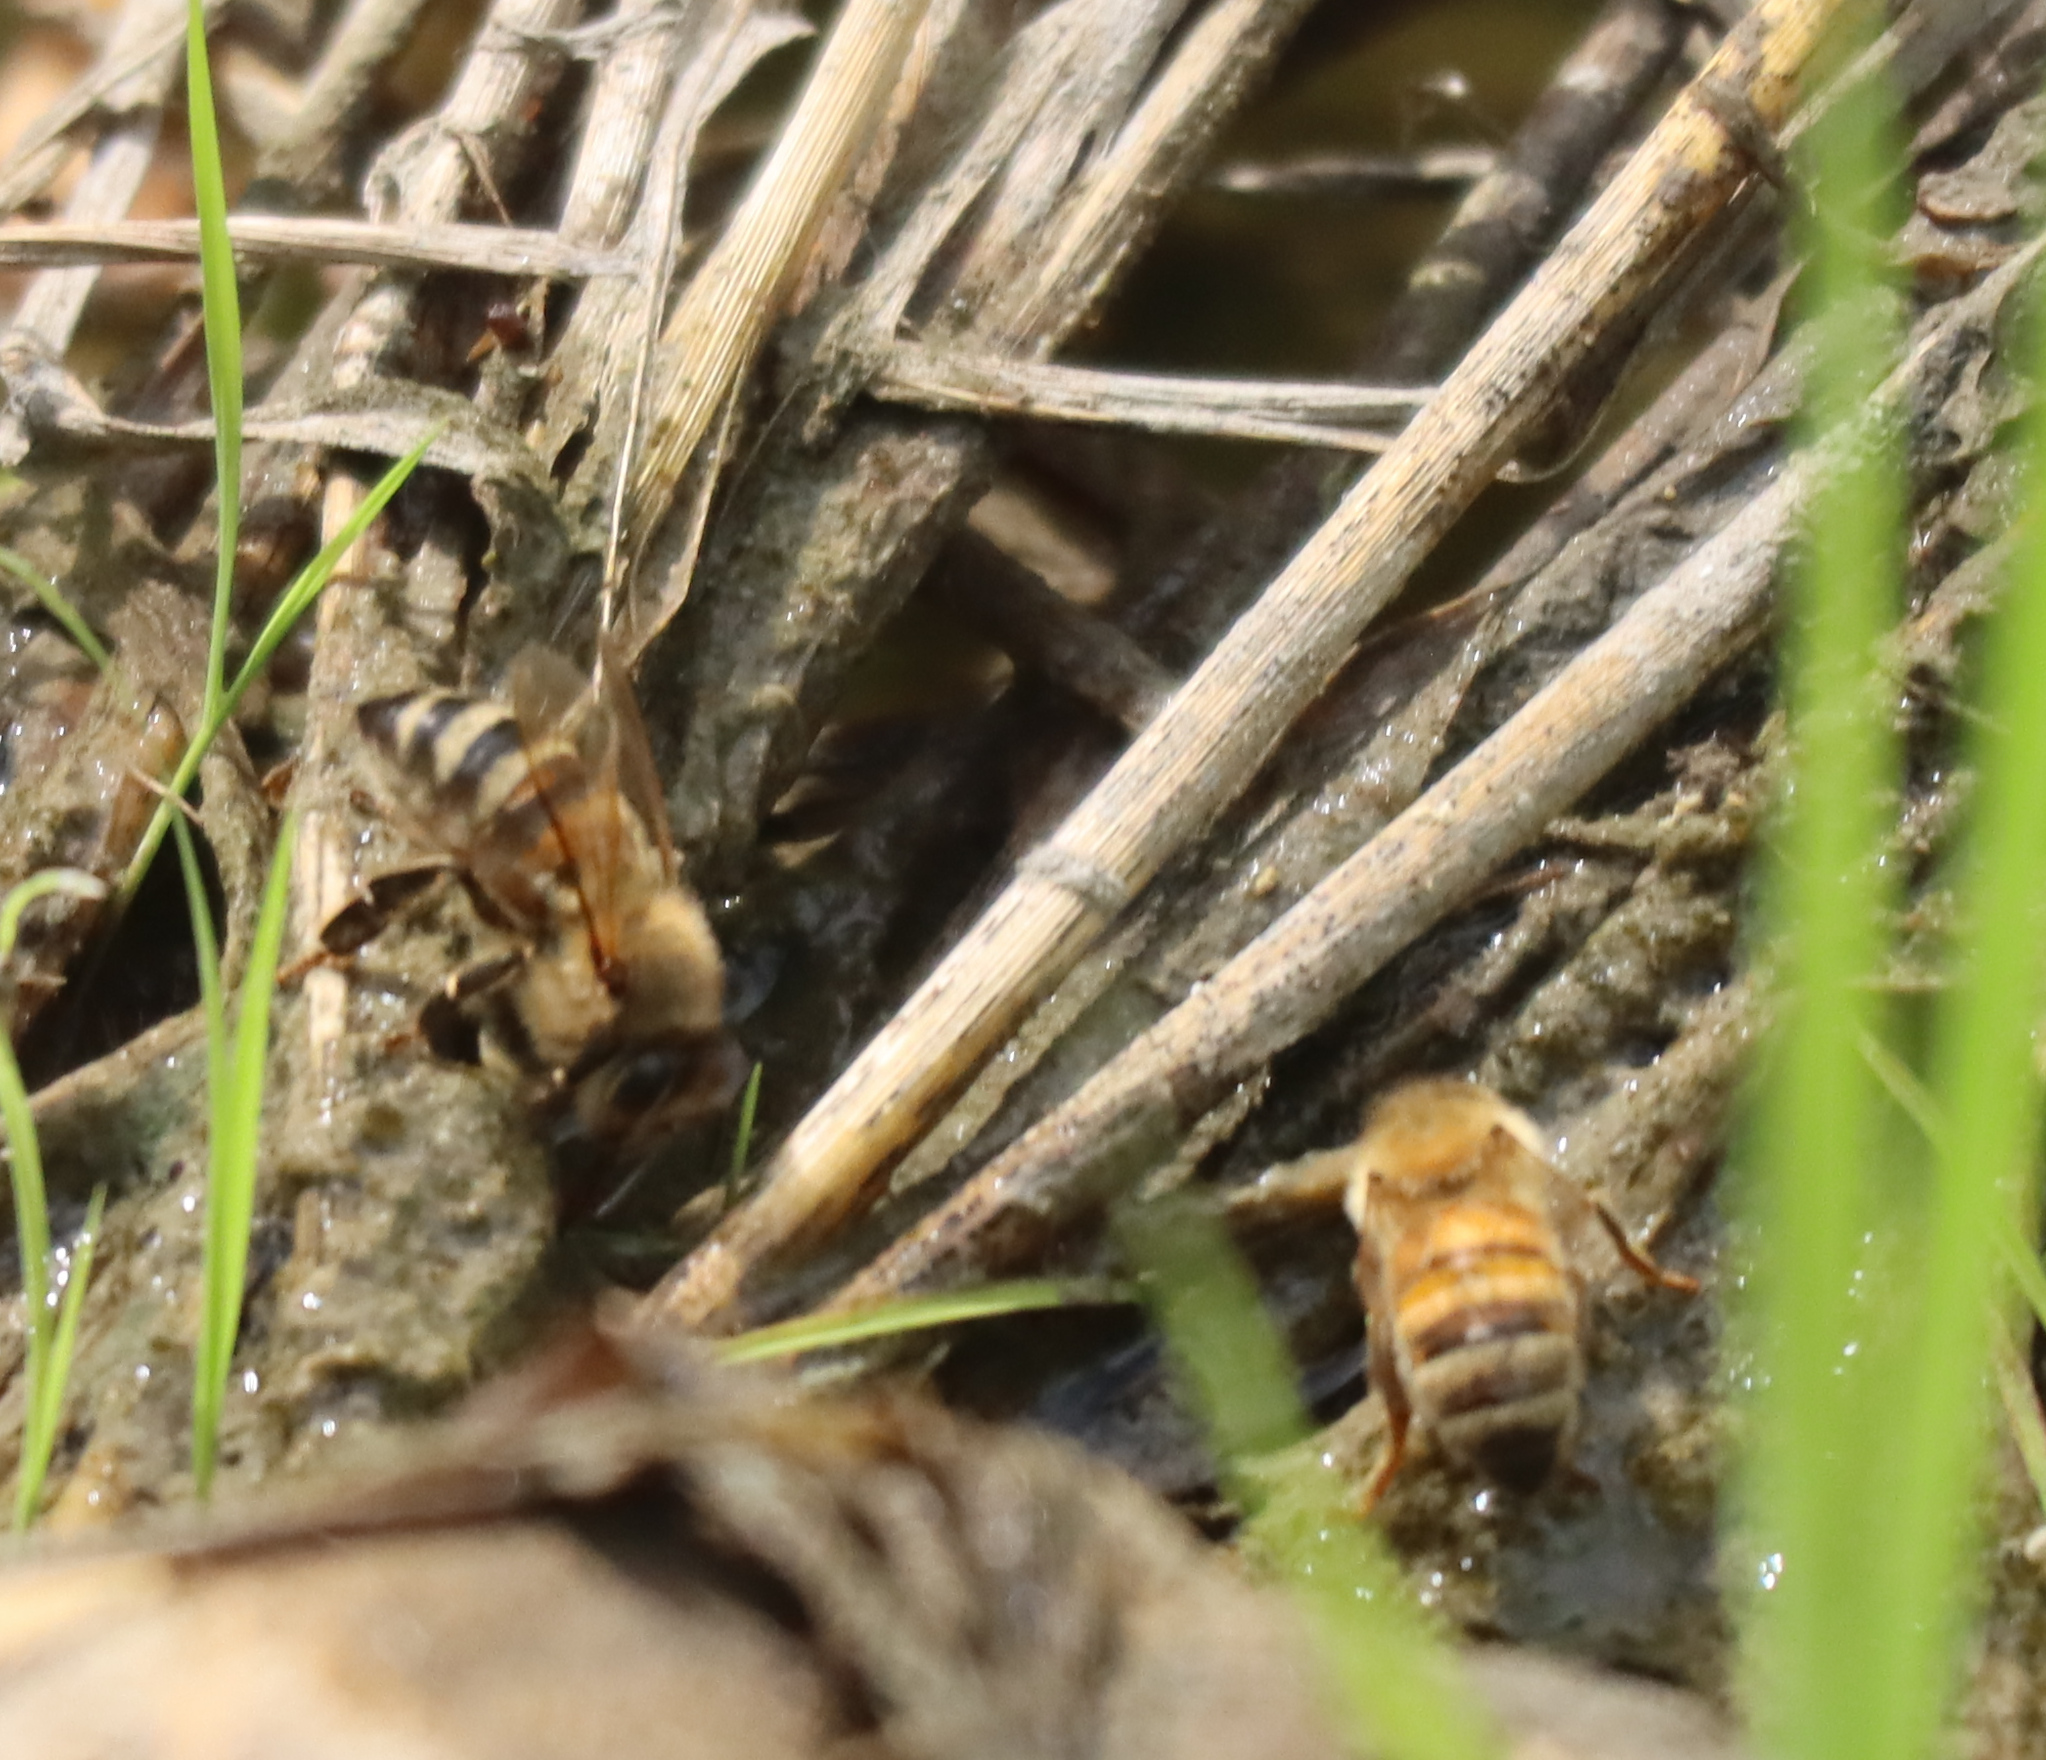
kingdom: Animalia
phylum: Arthropoda
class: Insecta
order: Hymenoptera
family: Apidae
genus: Apis
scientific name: Apis mellifera
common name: Honey bee
